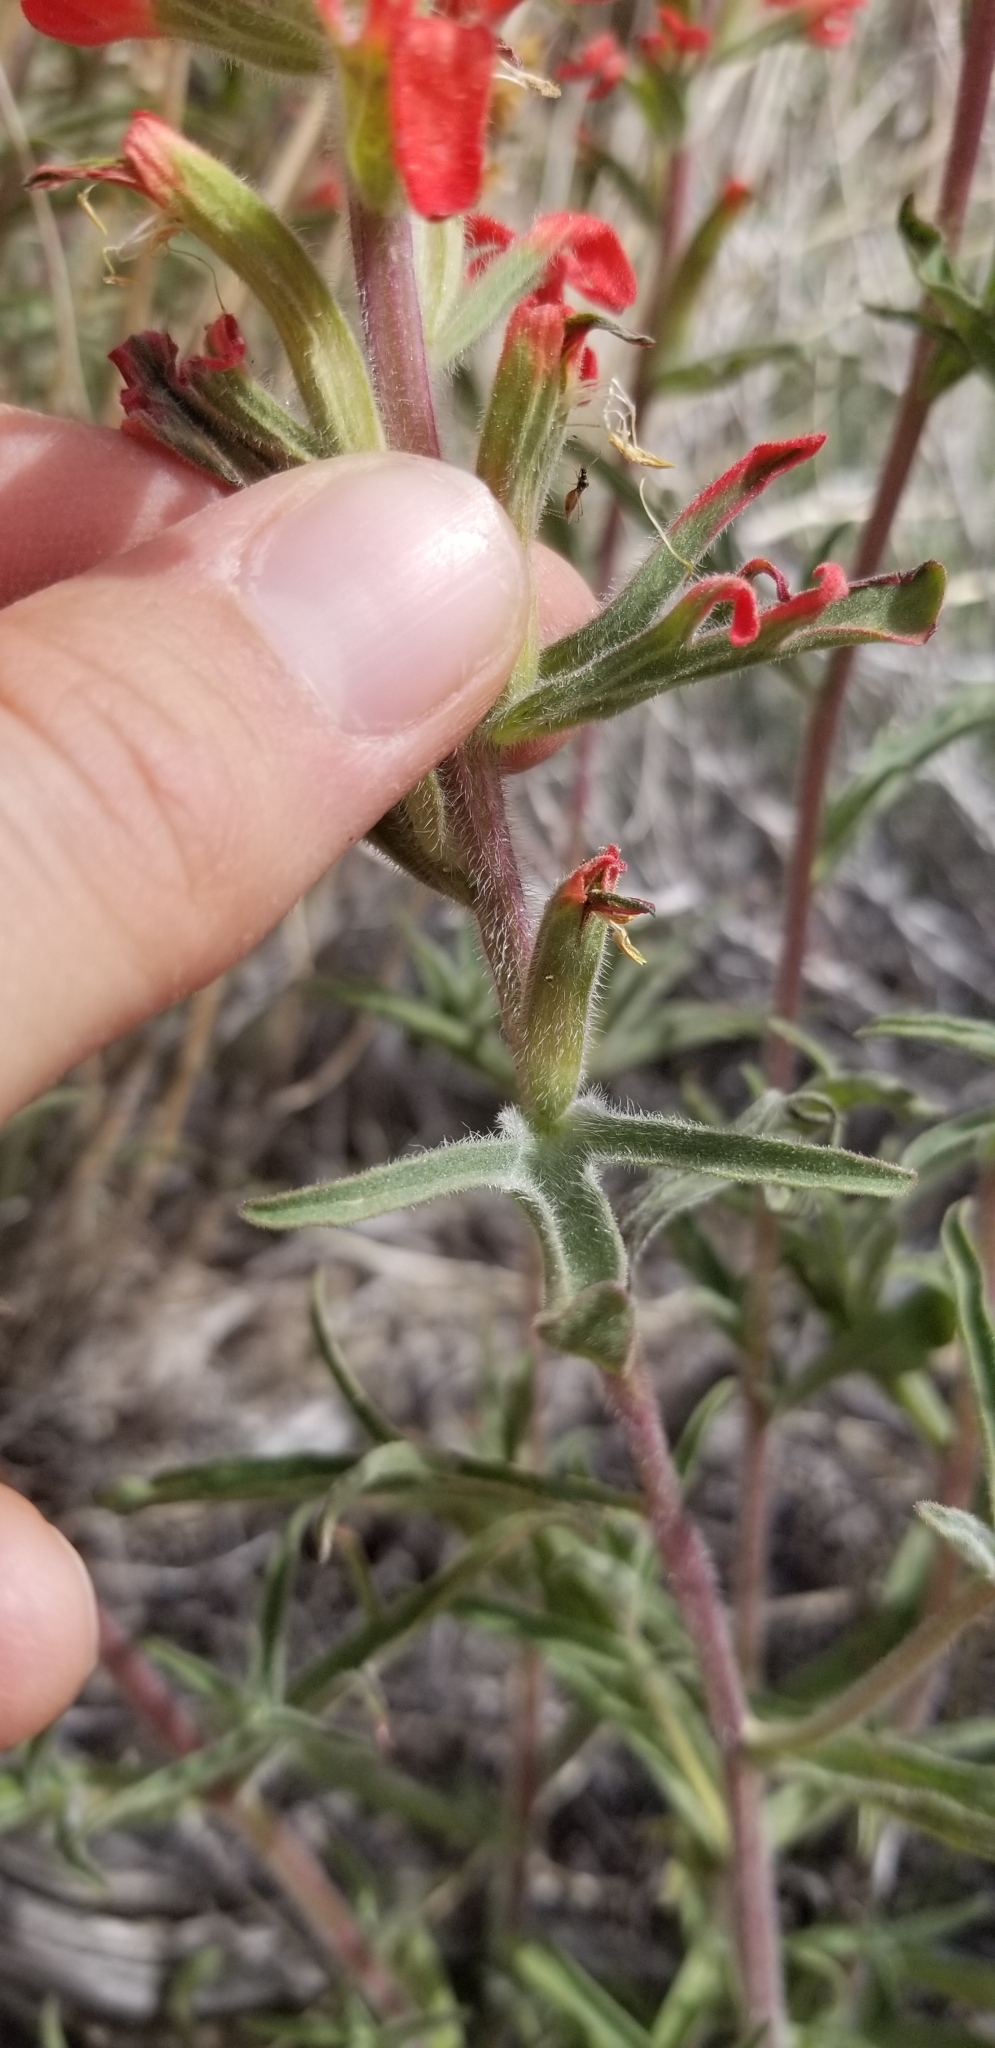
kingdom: Plantae
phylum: Tracheophyta
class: Magnoliopsida
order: Lamiales
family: Orobanchaceae
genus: Castilleja
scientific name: Castilleja chromosa
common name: Desert paintbrush
